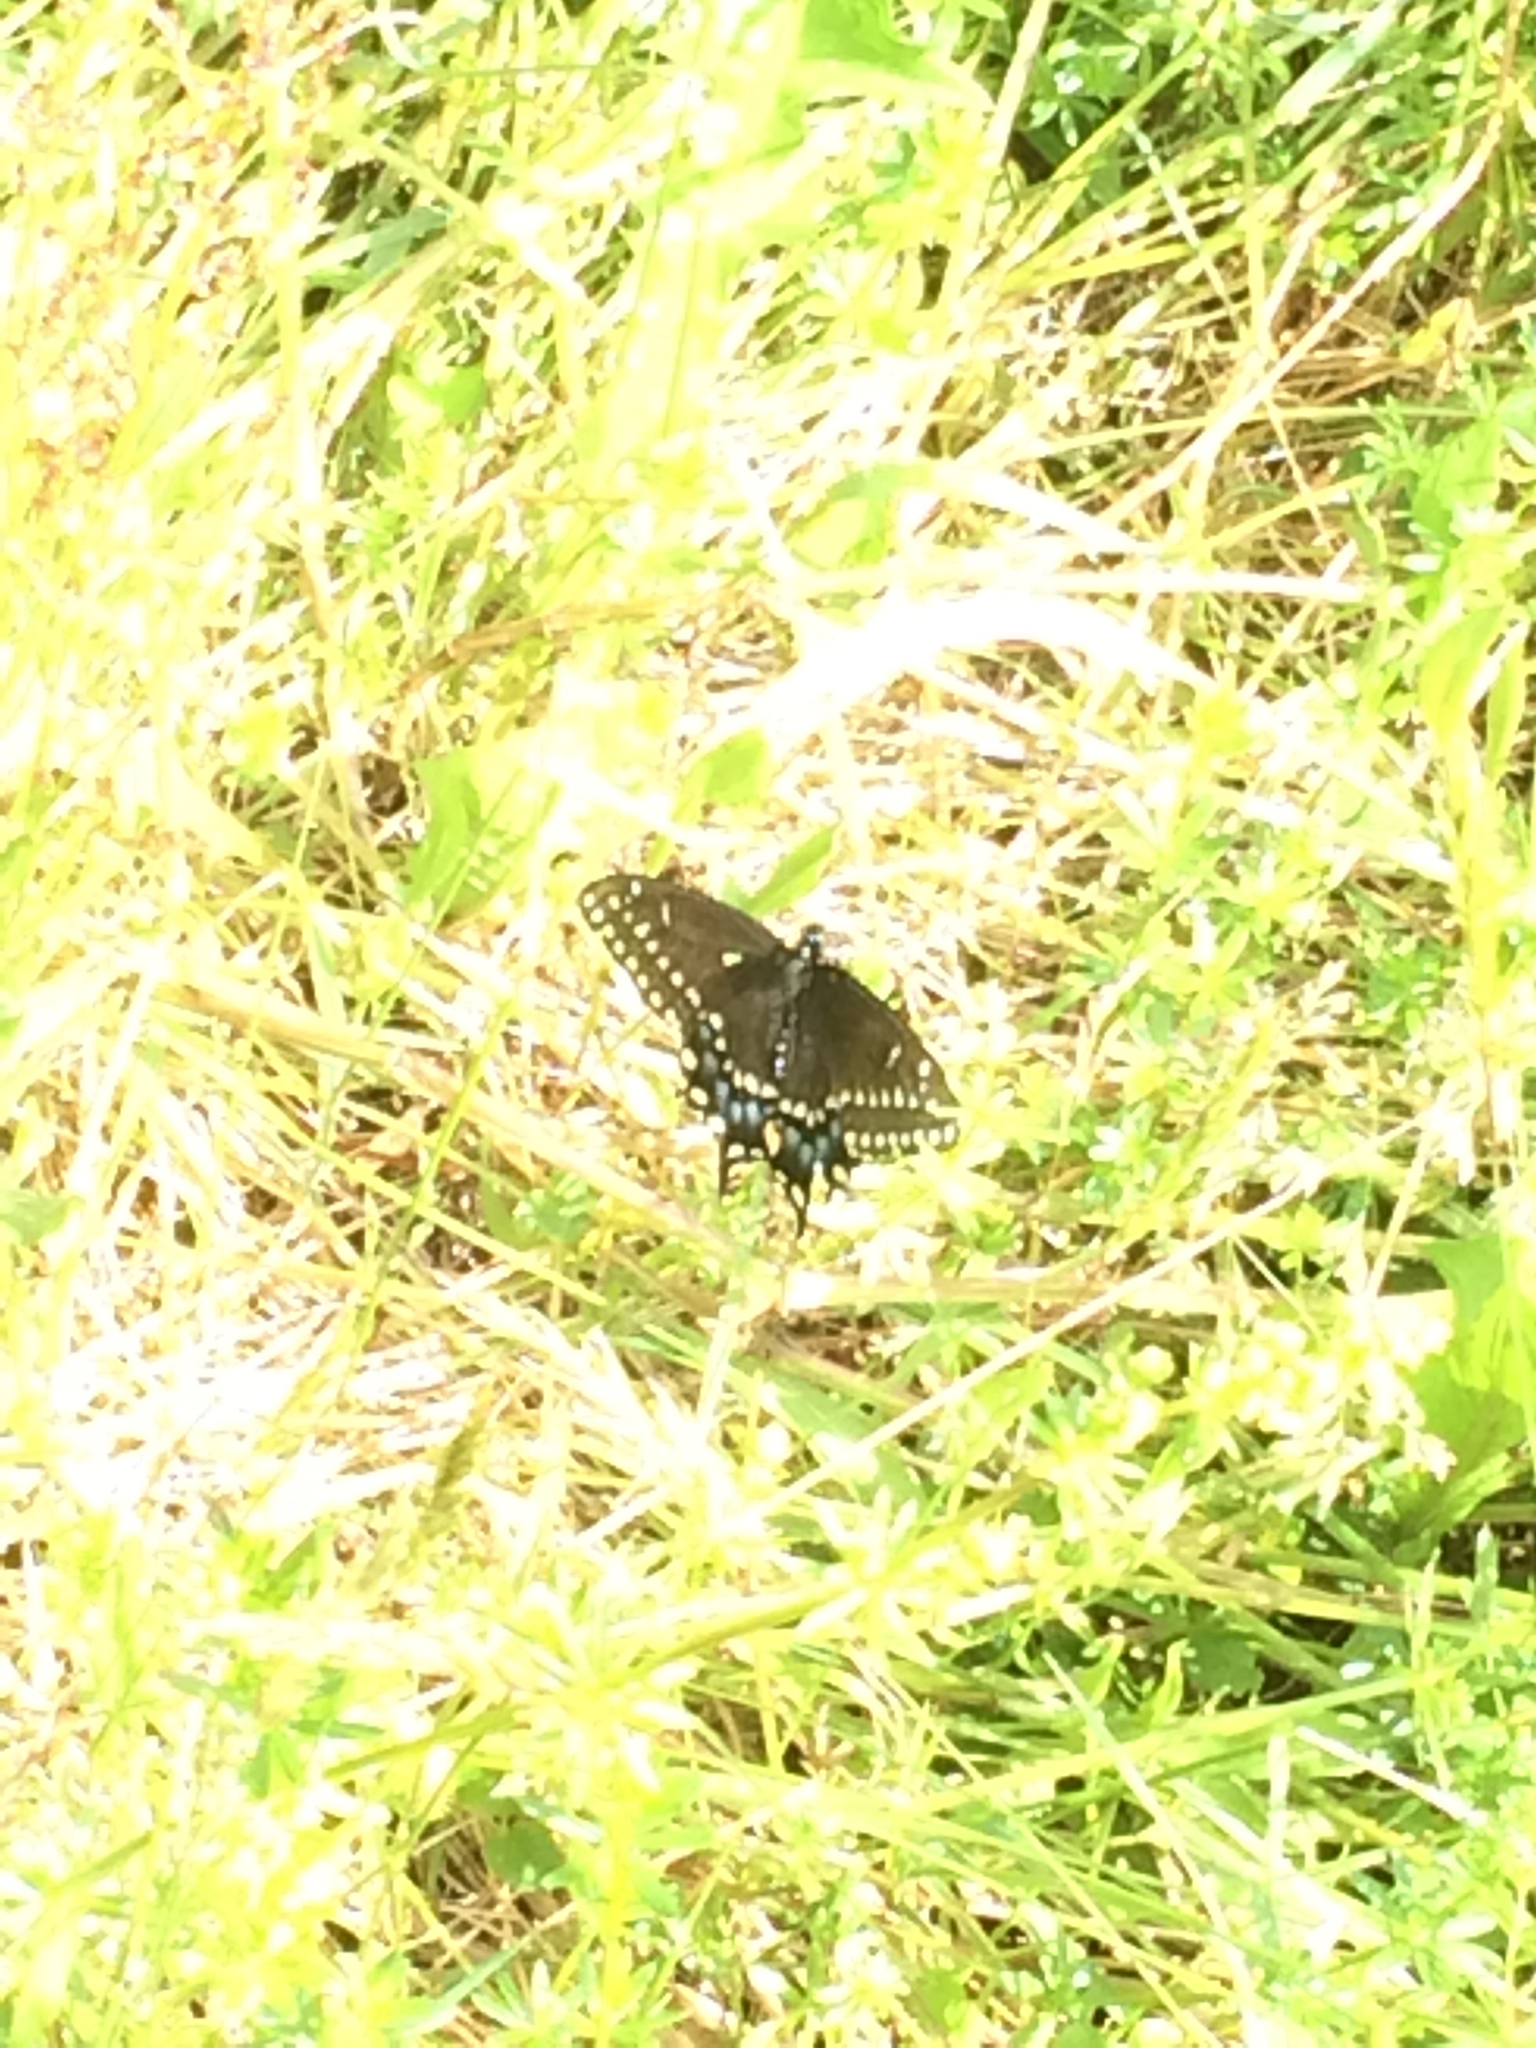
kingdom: Animalia
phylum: Arthropoda
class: Insecta
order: Lepidoptera
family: Papilionidae
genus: Papilio
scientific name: Papilio polyxenes
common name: Black swallowtail
